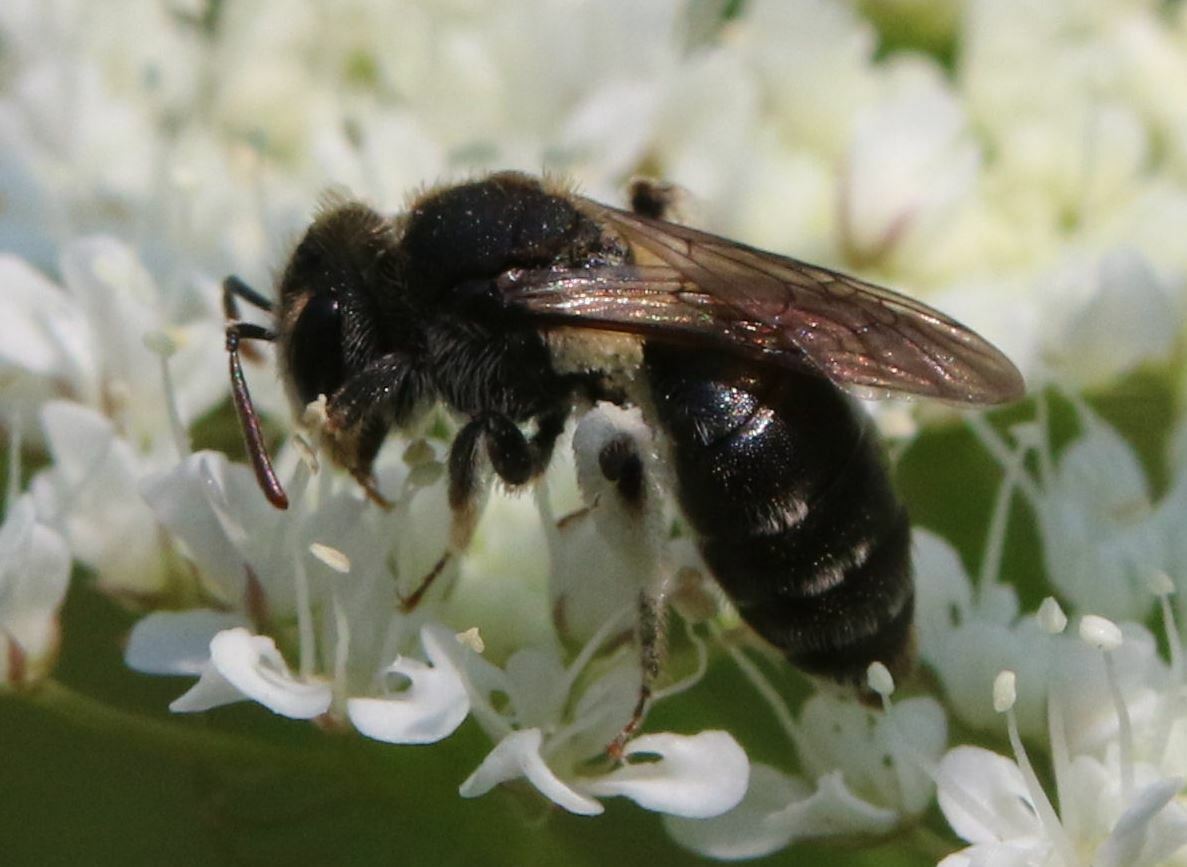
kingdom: Animalia
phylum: Arthropoda
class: Insecta
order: Hymenoptera
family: Andrenidae
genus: Andrena
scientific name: Andrena colletiformis
